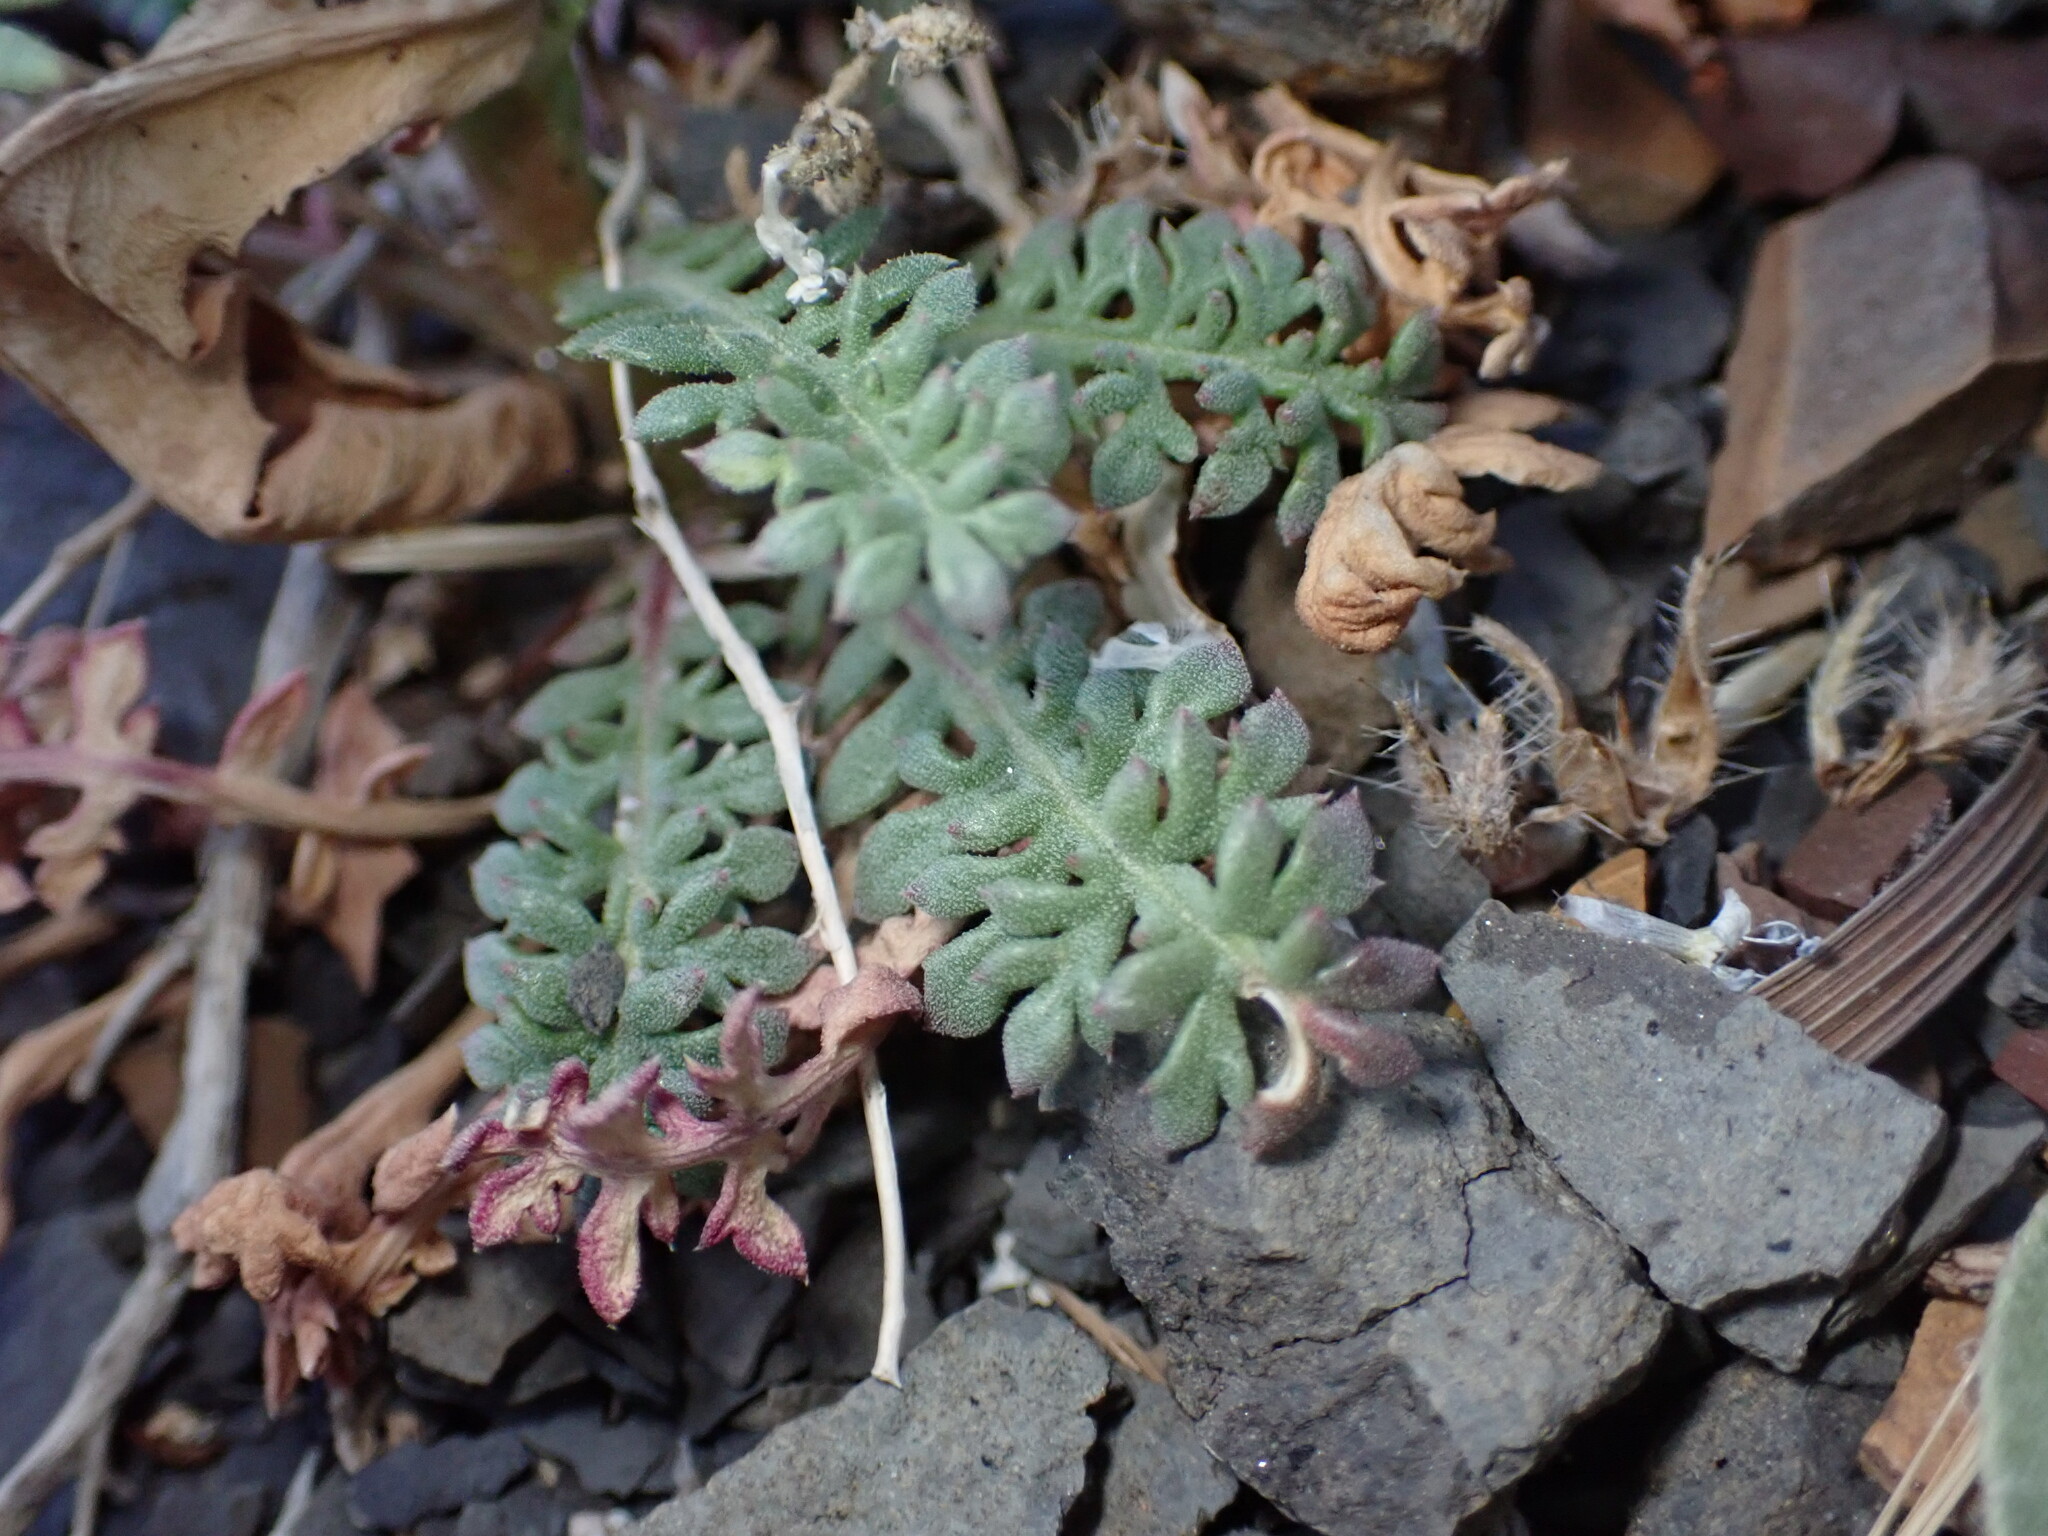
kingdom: Plantae
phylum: Tracheophyta
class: Magnoliopsida
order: Ericales
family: Polemoniaceae
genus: Aliciella
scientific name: Aliciella pinnatifida
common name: Sticky gilia
